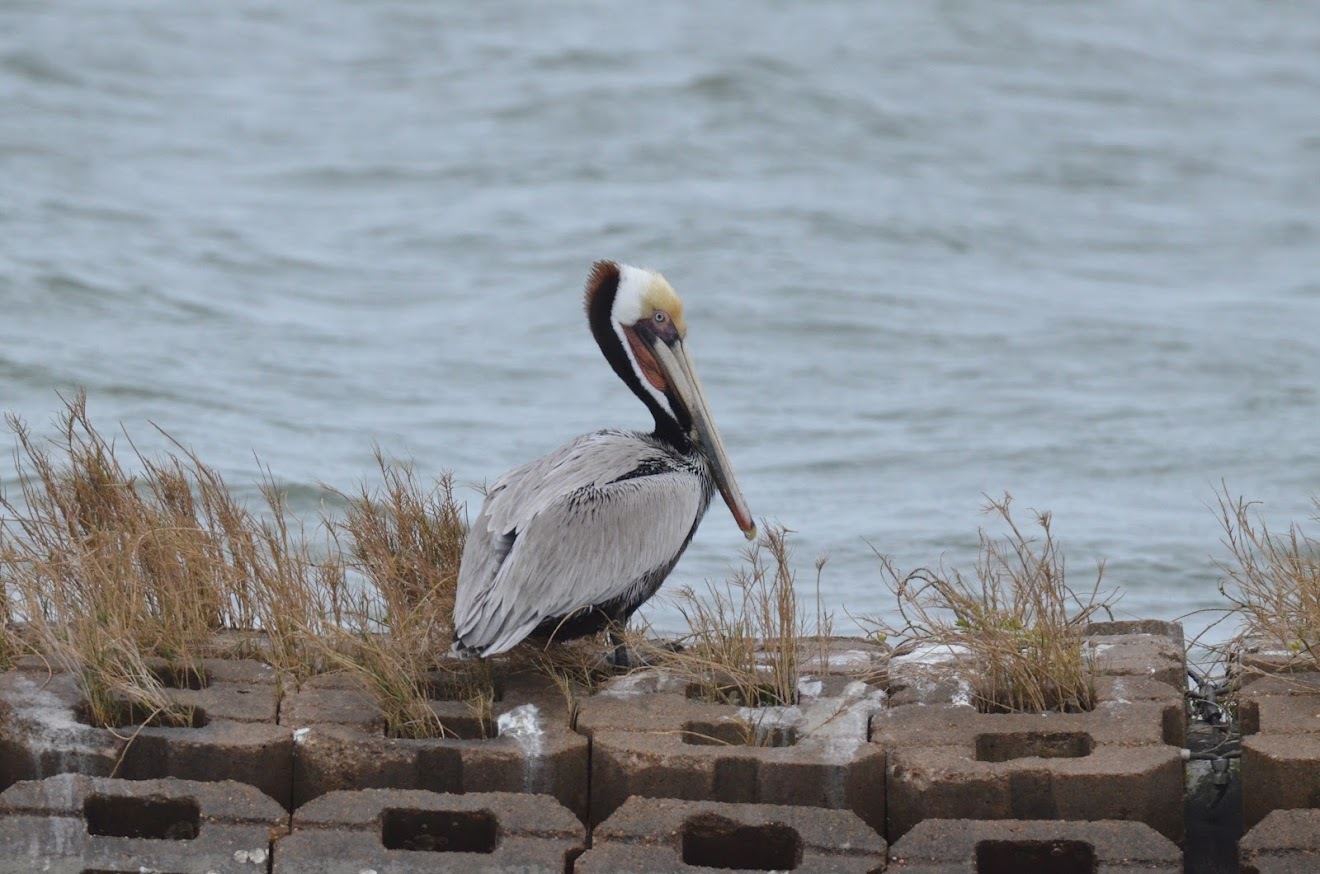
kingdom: Animalia
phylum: Chordata
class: Aves
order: Pelecaniformes
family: Pelecanidae
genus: Pelecanus
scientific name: Pelecanus occidentalis
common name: Brown pelican
